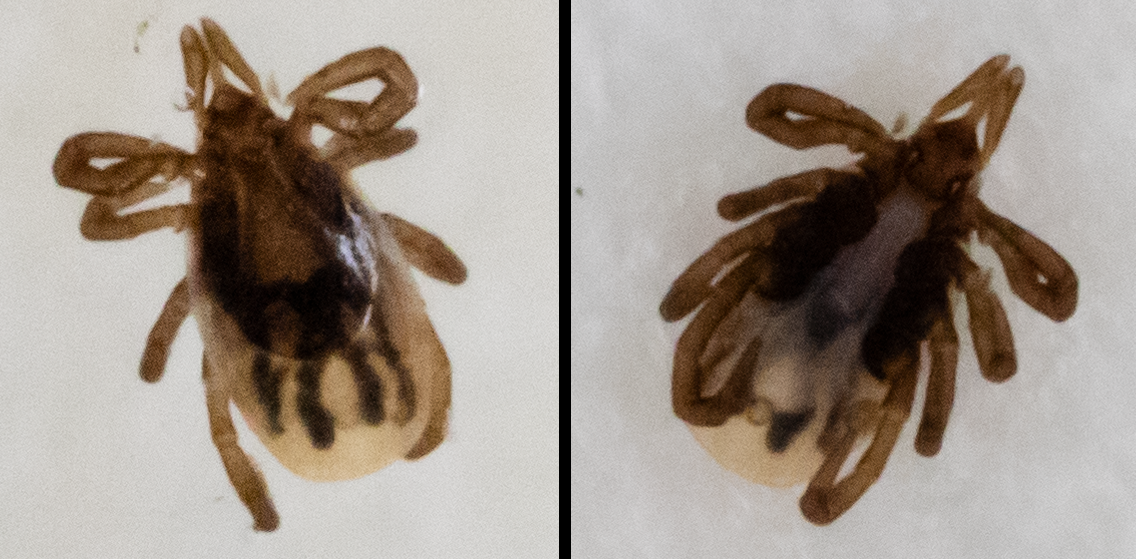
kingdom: Animalia
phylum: Arthropoda
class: Arachnida
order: Ixodida
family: Ixodidae
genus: Ixodes
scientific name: Ixodes scapularis
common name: Black legged tick
